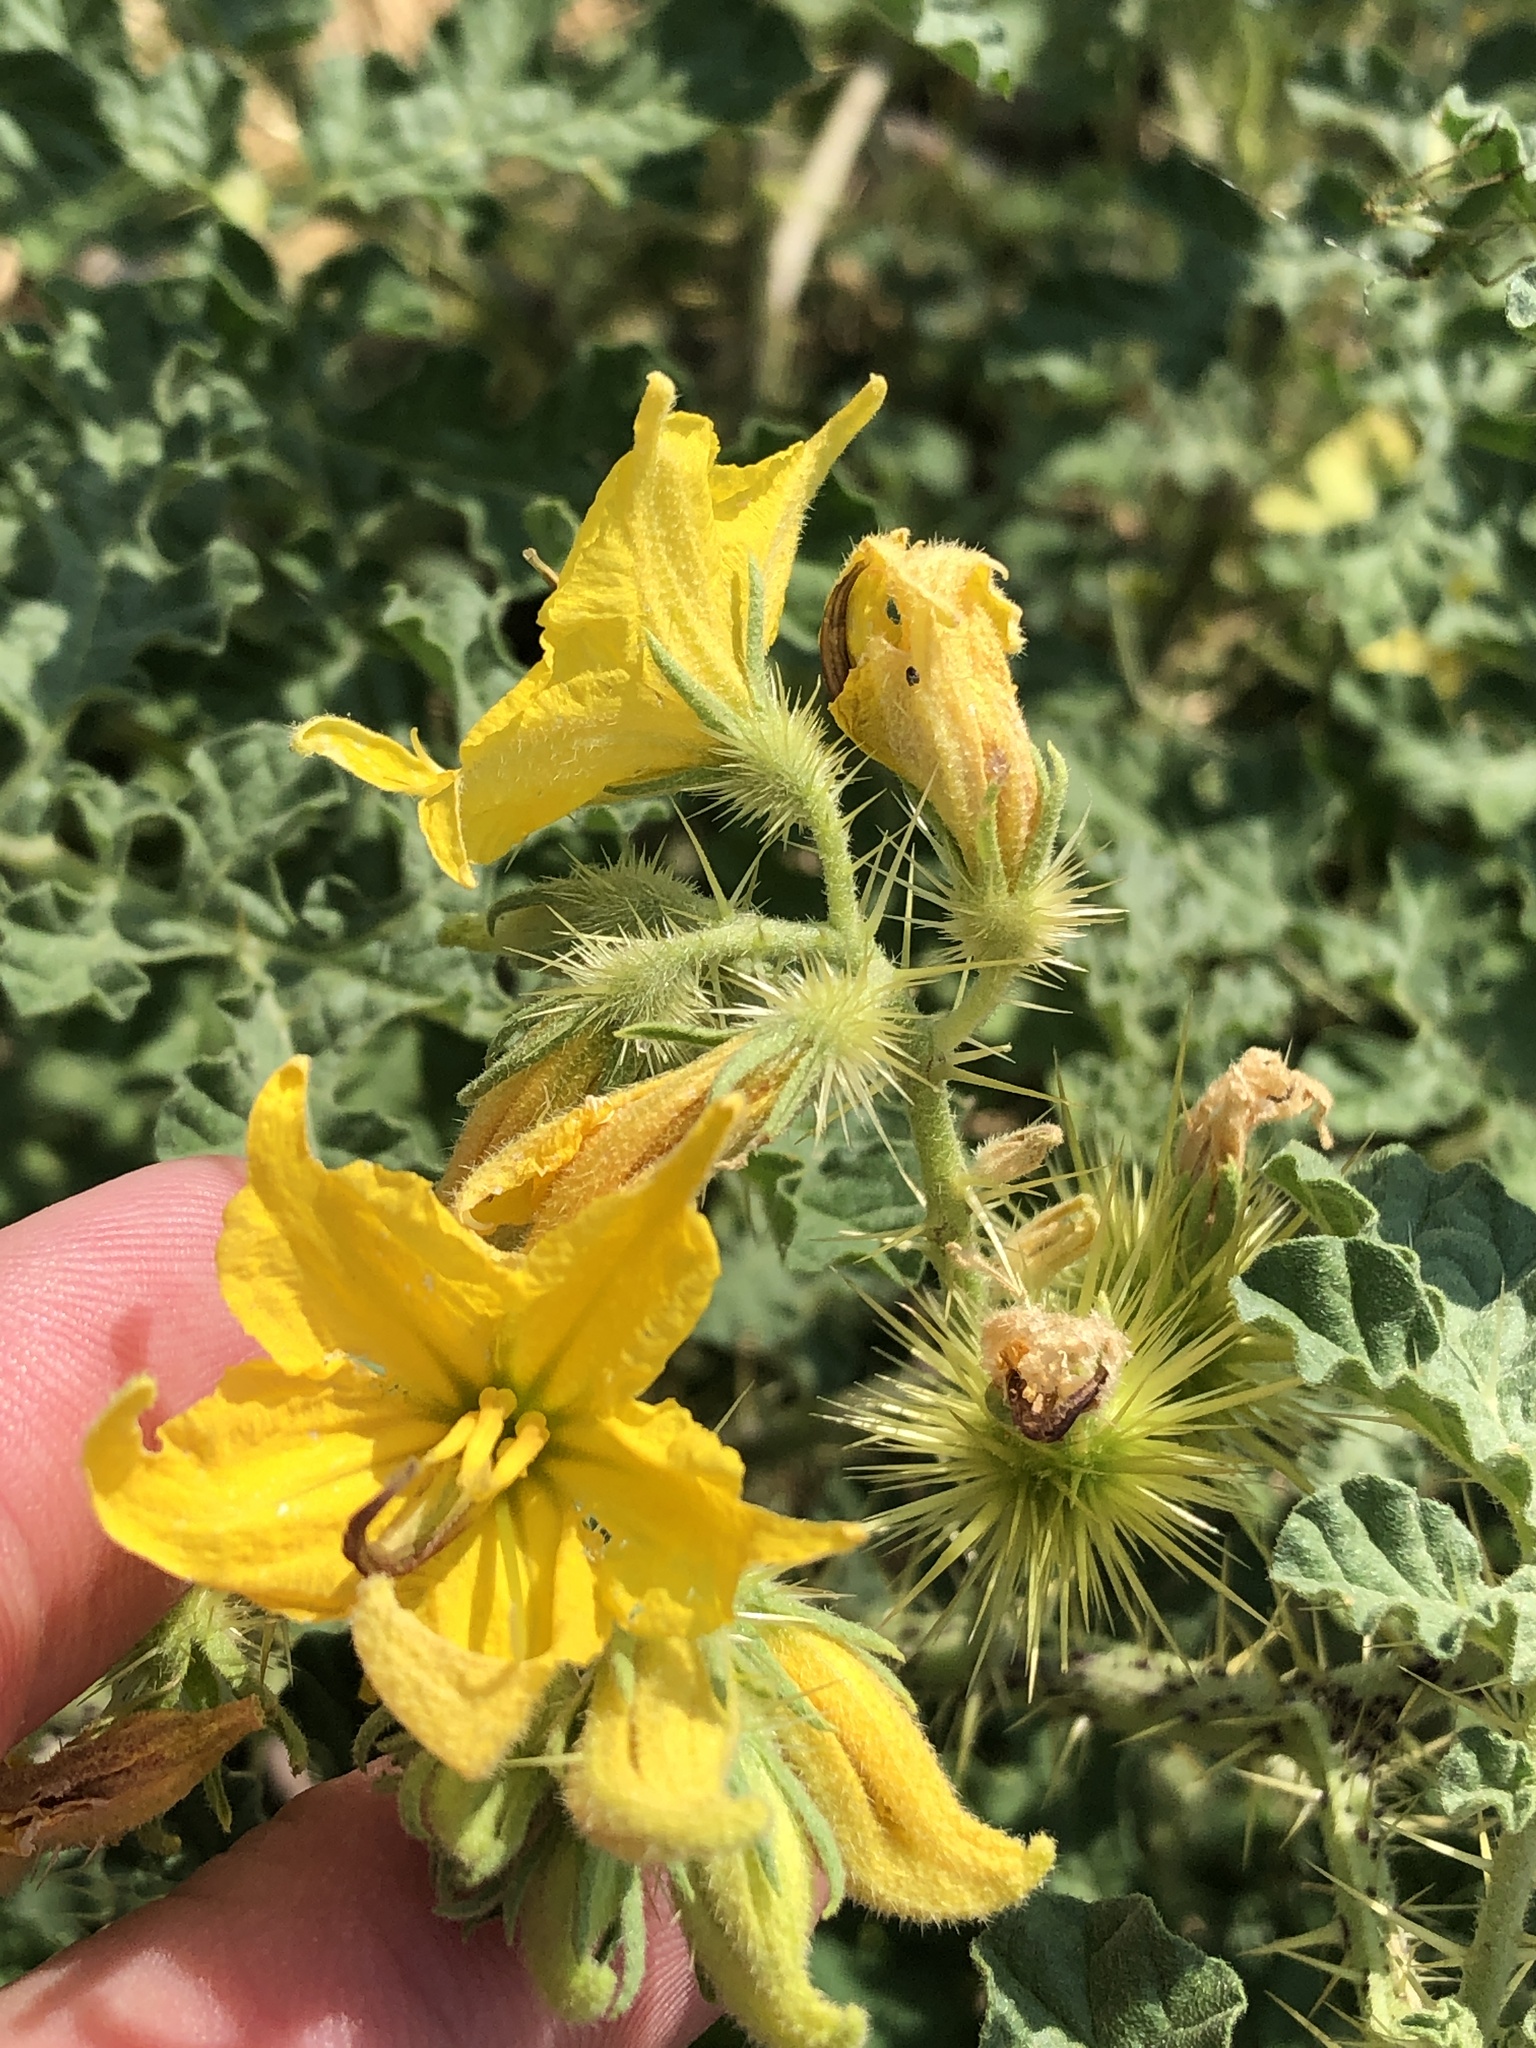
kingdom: Plantae
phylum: Tracheophyta
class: Magnoliopsida
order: Solanales
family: Solanaceae
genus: Solanum
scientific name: Solanum angustifolium
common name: Buffalobur nightshade
